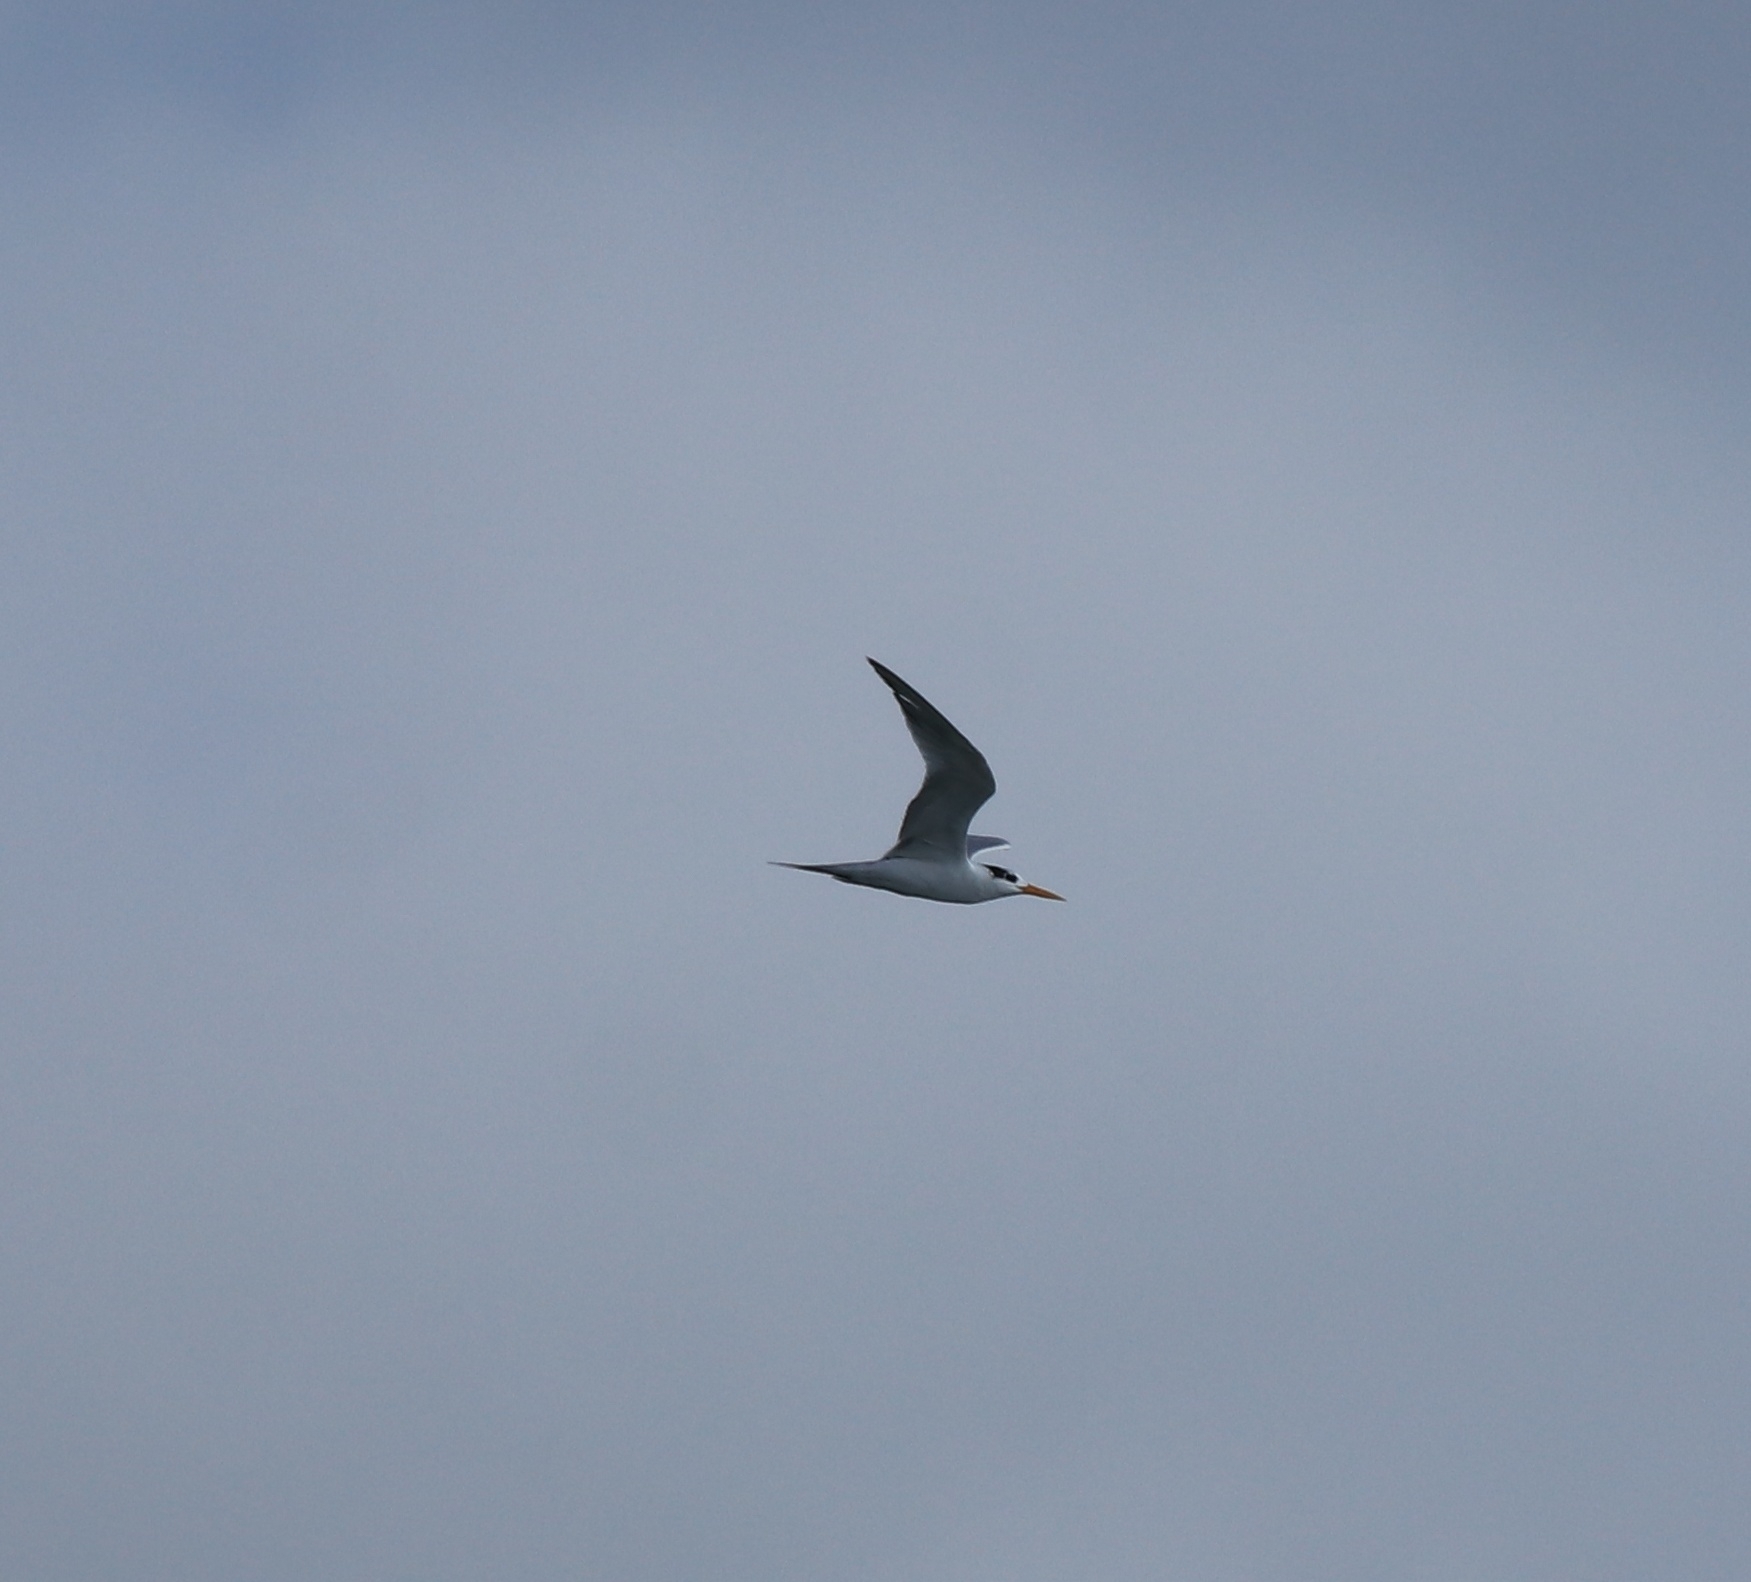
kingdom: Animalia
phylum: Chordata
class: Aves
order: Charadriiformes
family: Laridae
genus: Thalasseus
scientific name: Thalasseus bengalensis
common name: Lesser crested tern
